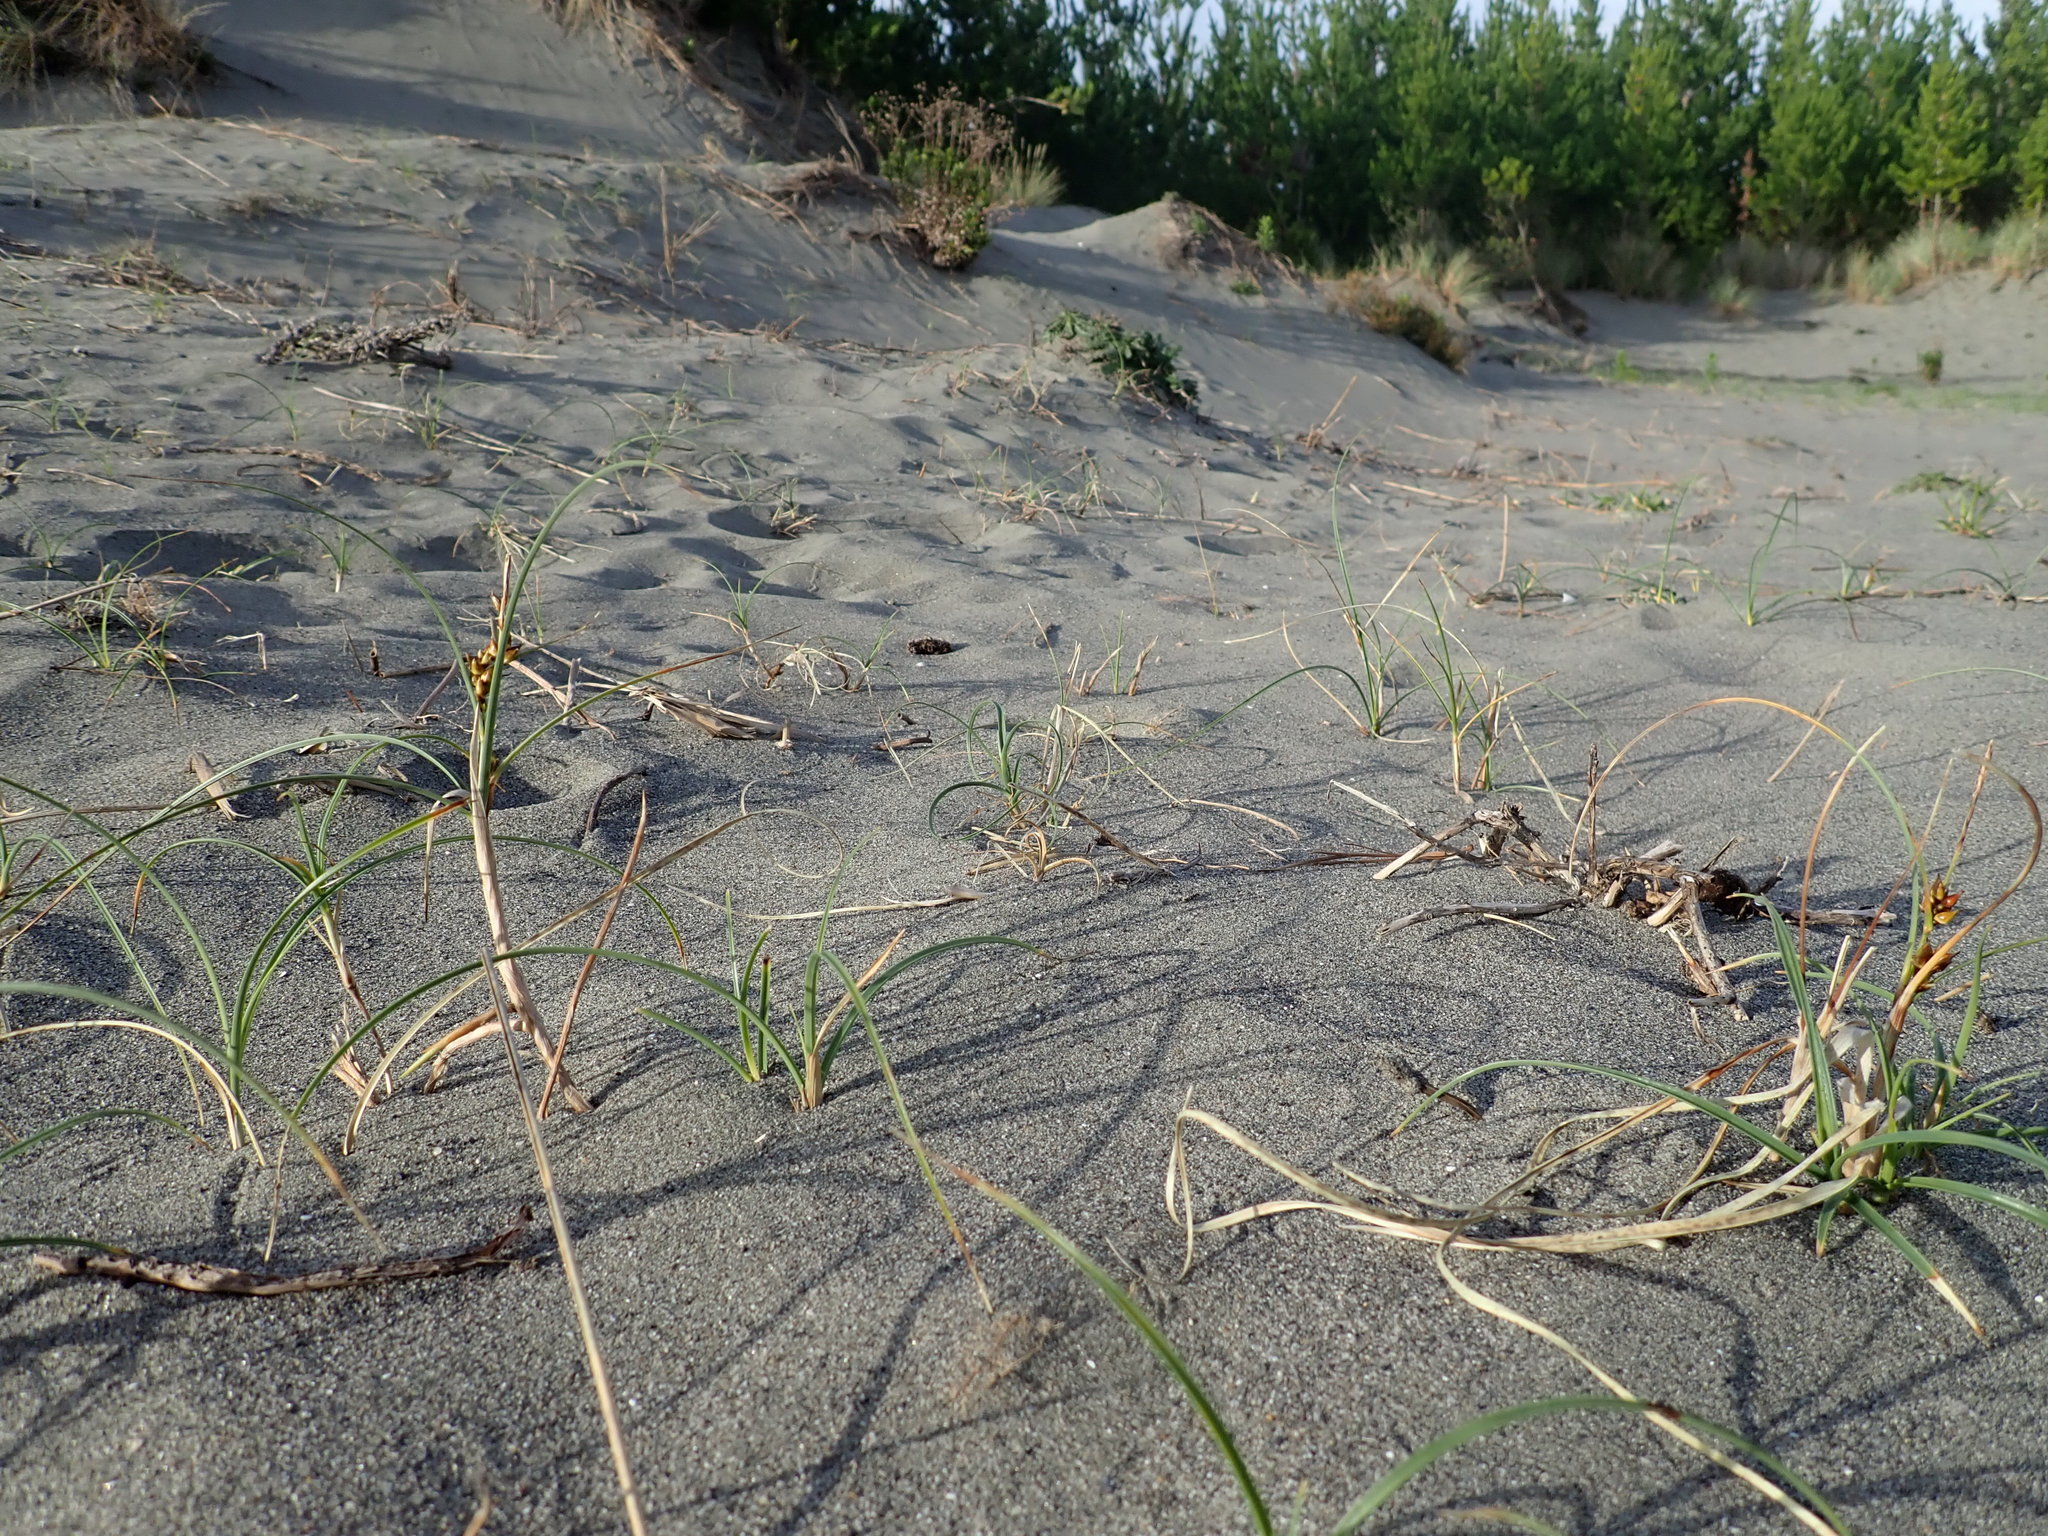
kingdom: Plantae
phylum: Tracheophyta
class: Liliopsida
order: Poales
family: Cyperaceae
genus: Carex
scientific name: Carex pumila
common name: Dwarf sedge
